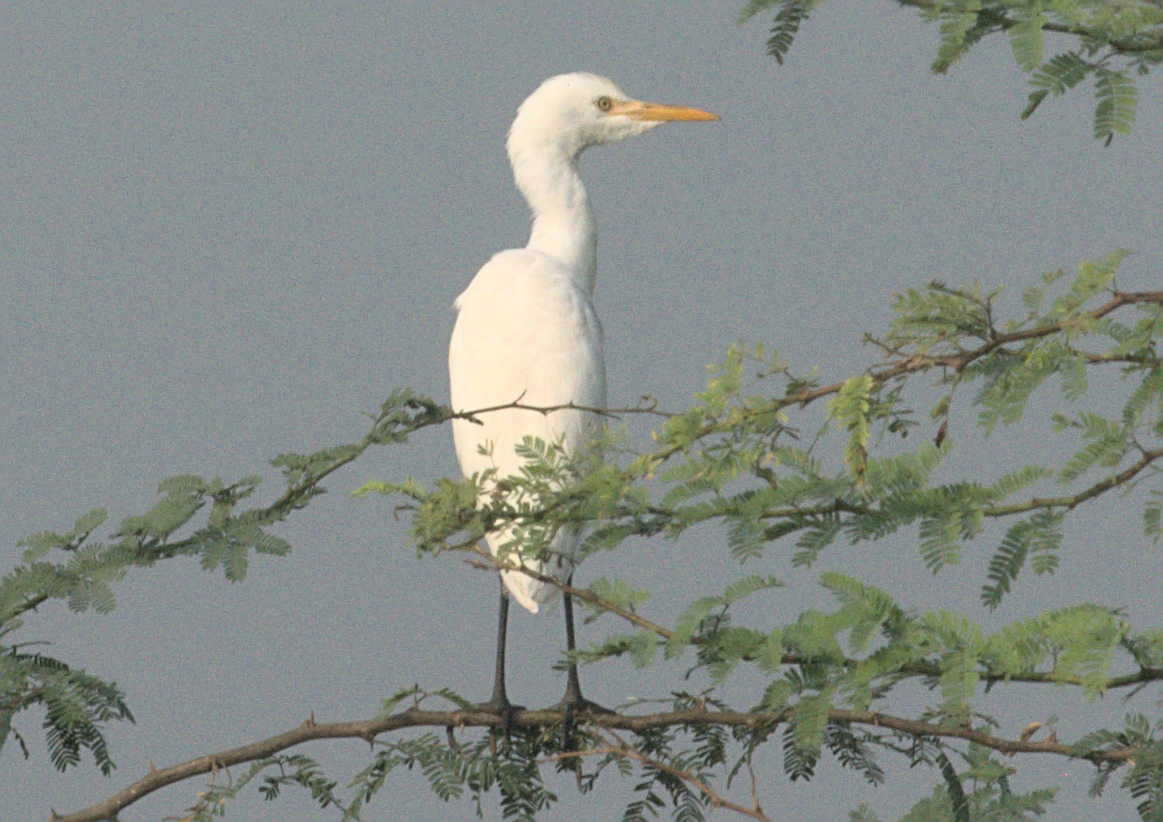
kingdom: Animalia
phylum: Chordata
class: Aves
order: Pelecaniformes
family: Ardeidae
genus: Bubulcus
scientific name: Bubulcus coromandus
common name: Eastern cattle egret
